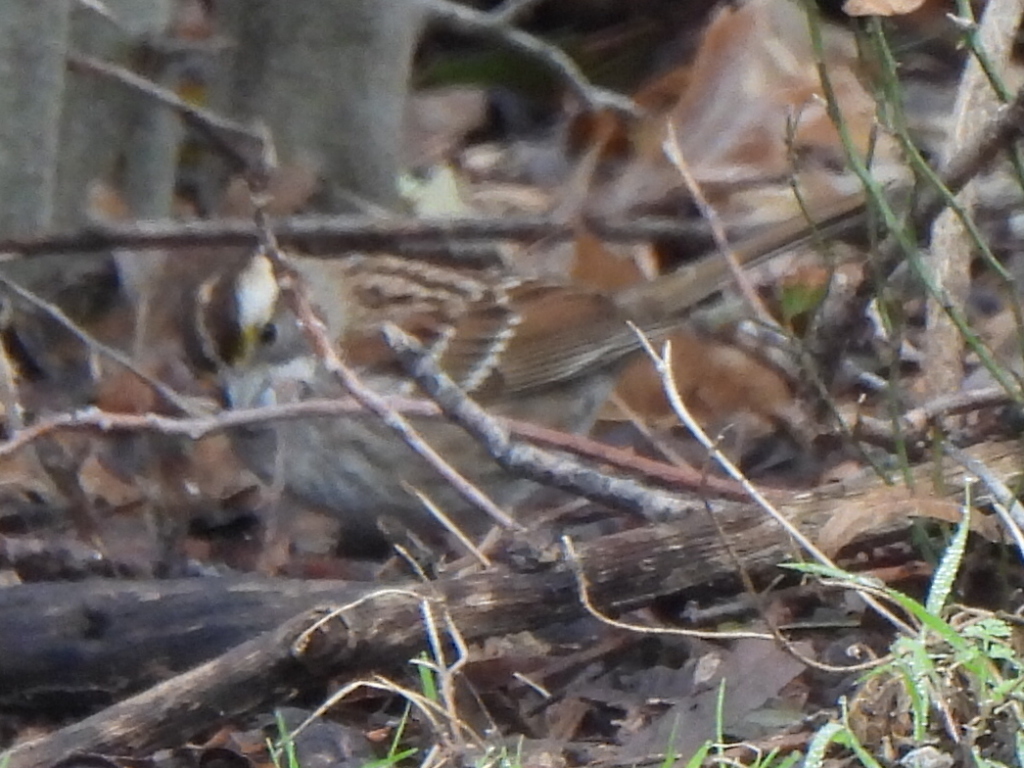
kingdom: Animalia
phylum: Chordata
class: Aves
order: Passeriformes
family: Passerellidae
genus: Zonotrichia
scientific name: Zonotrichia albicollis
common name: White-throated sparrow
